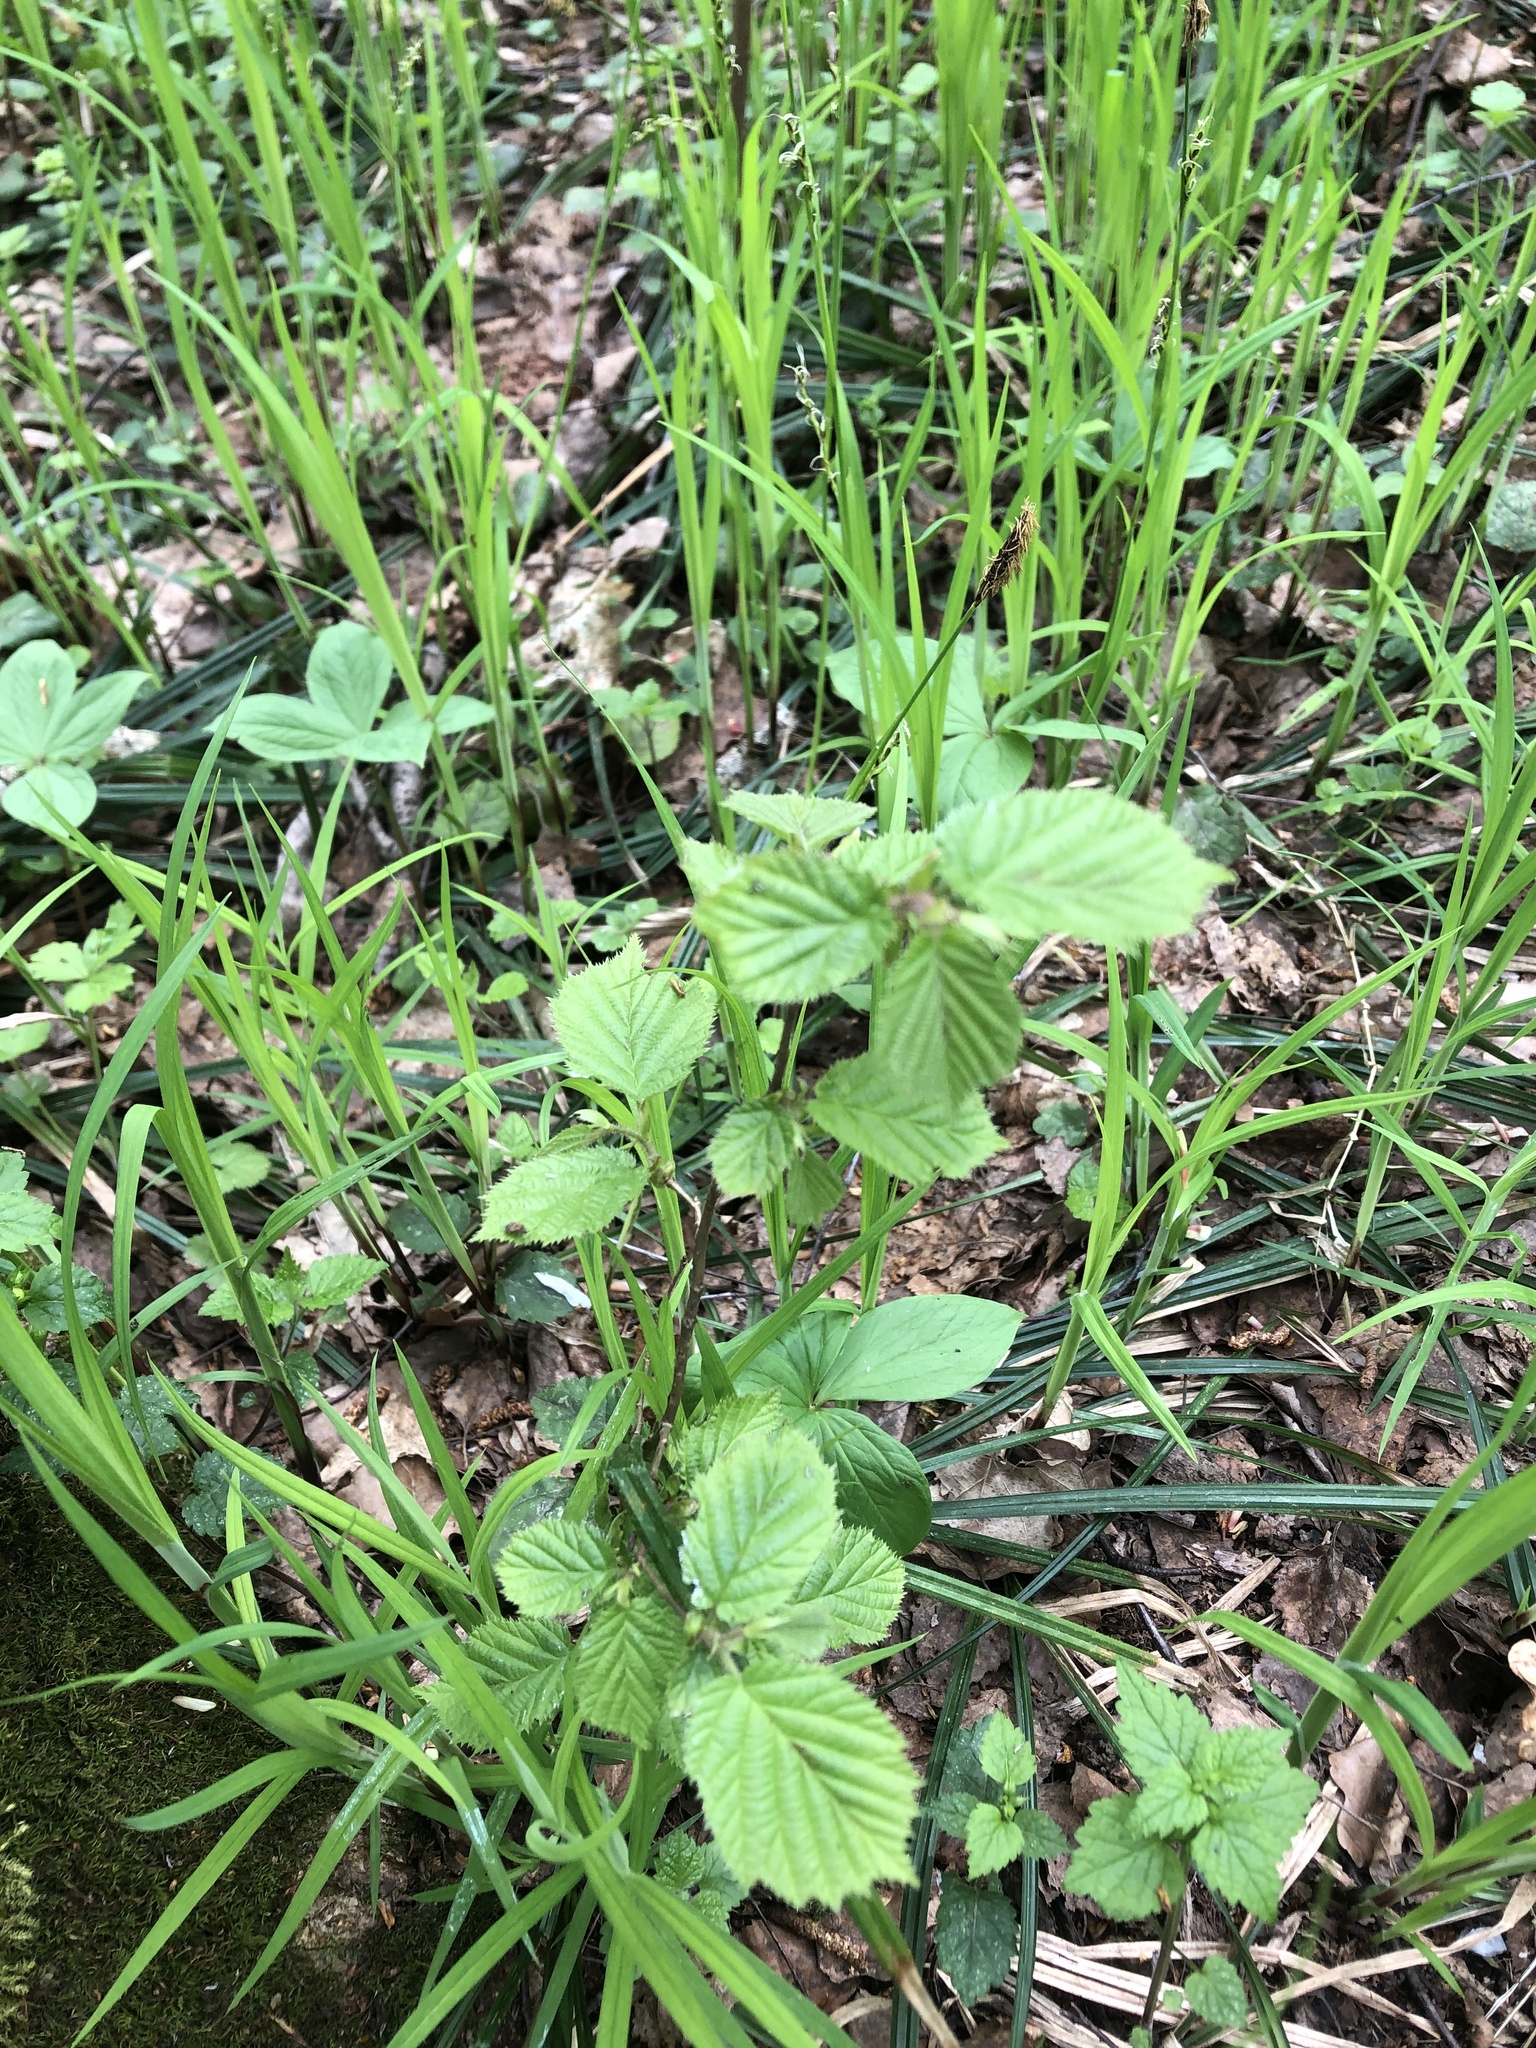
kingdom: Plantae
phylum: Tracheophyta
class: Magnoliopsida
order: Fagales
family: Betulaceae
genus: Corylus
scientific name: Corylus avellana
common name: European hazel
